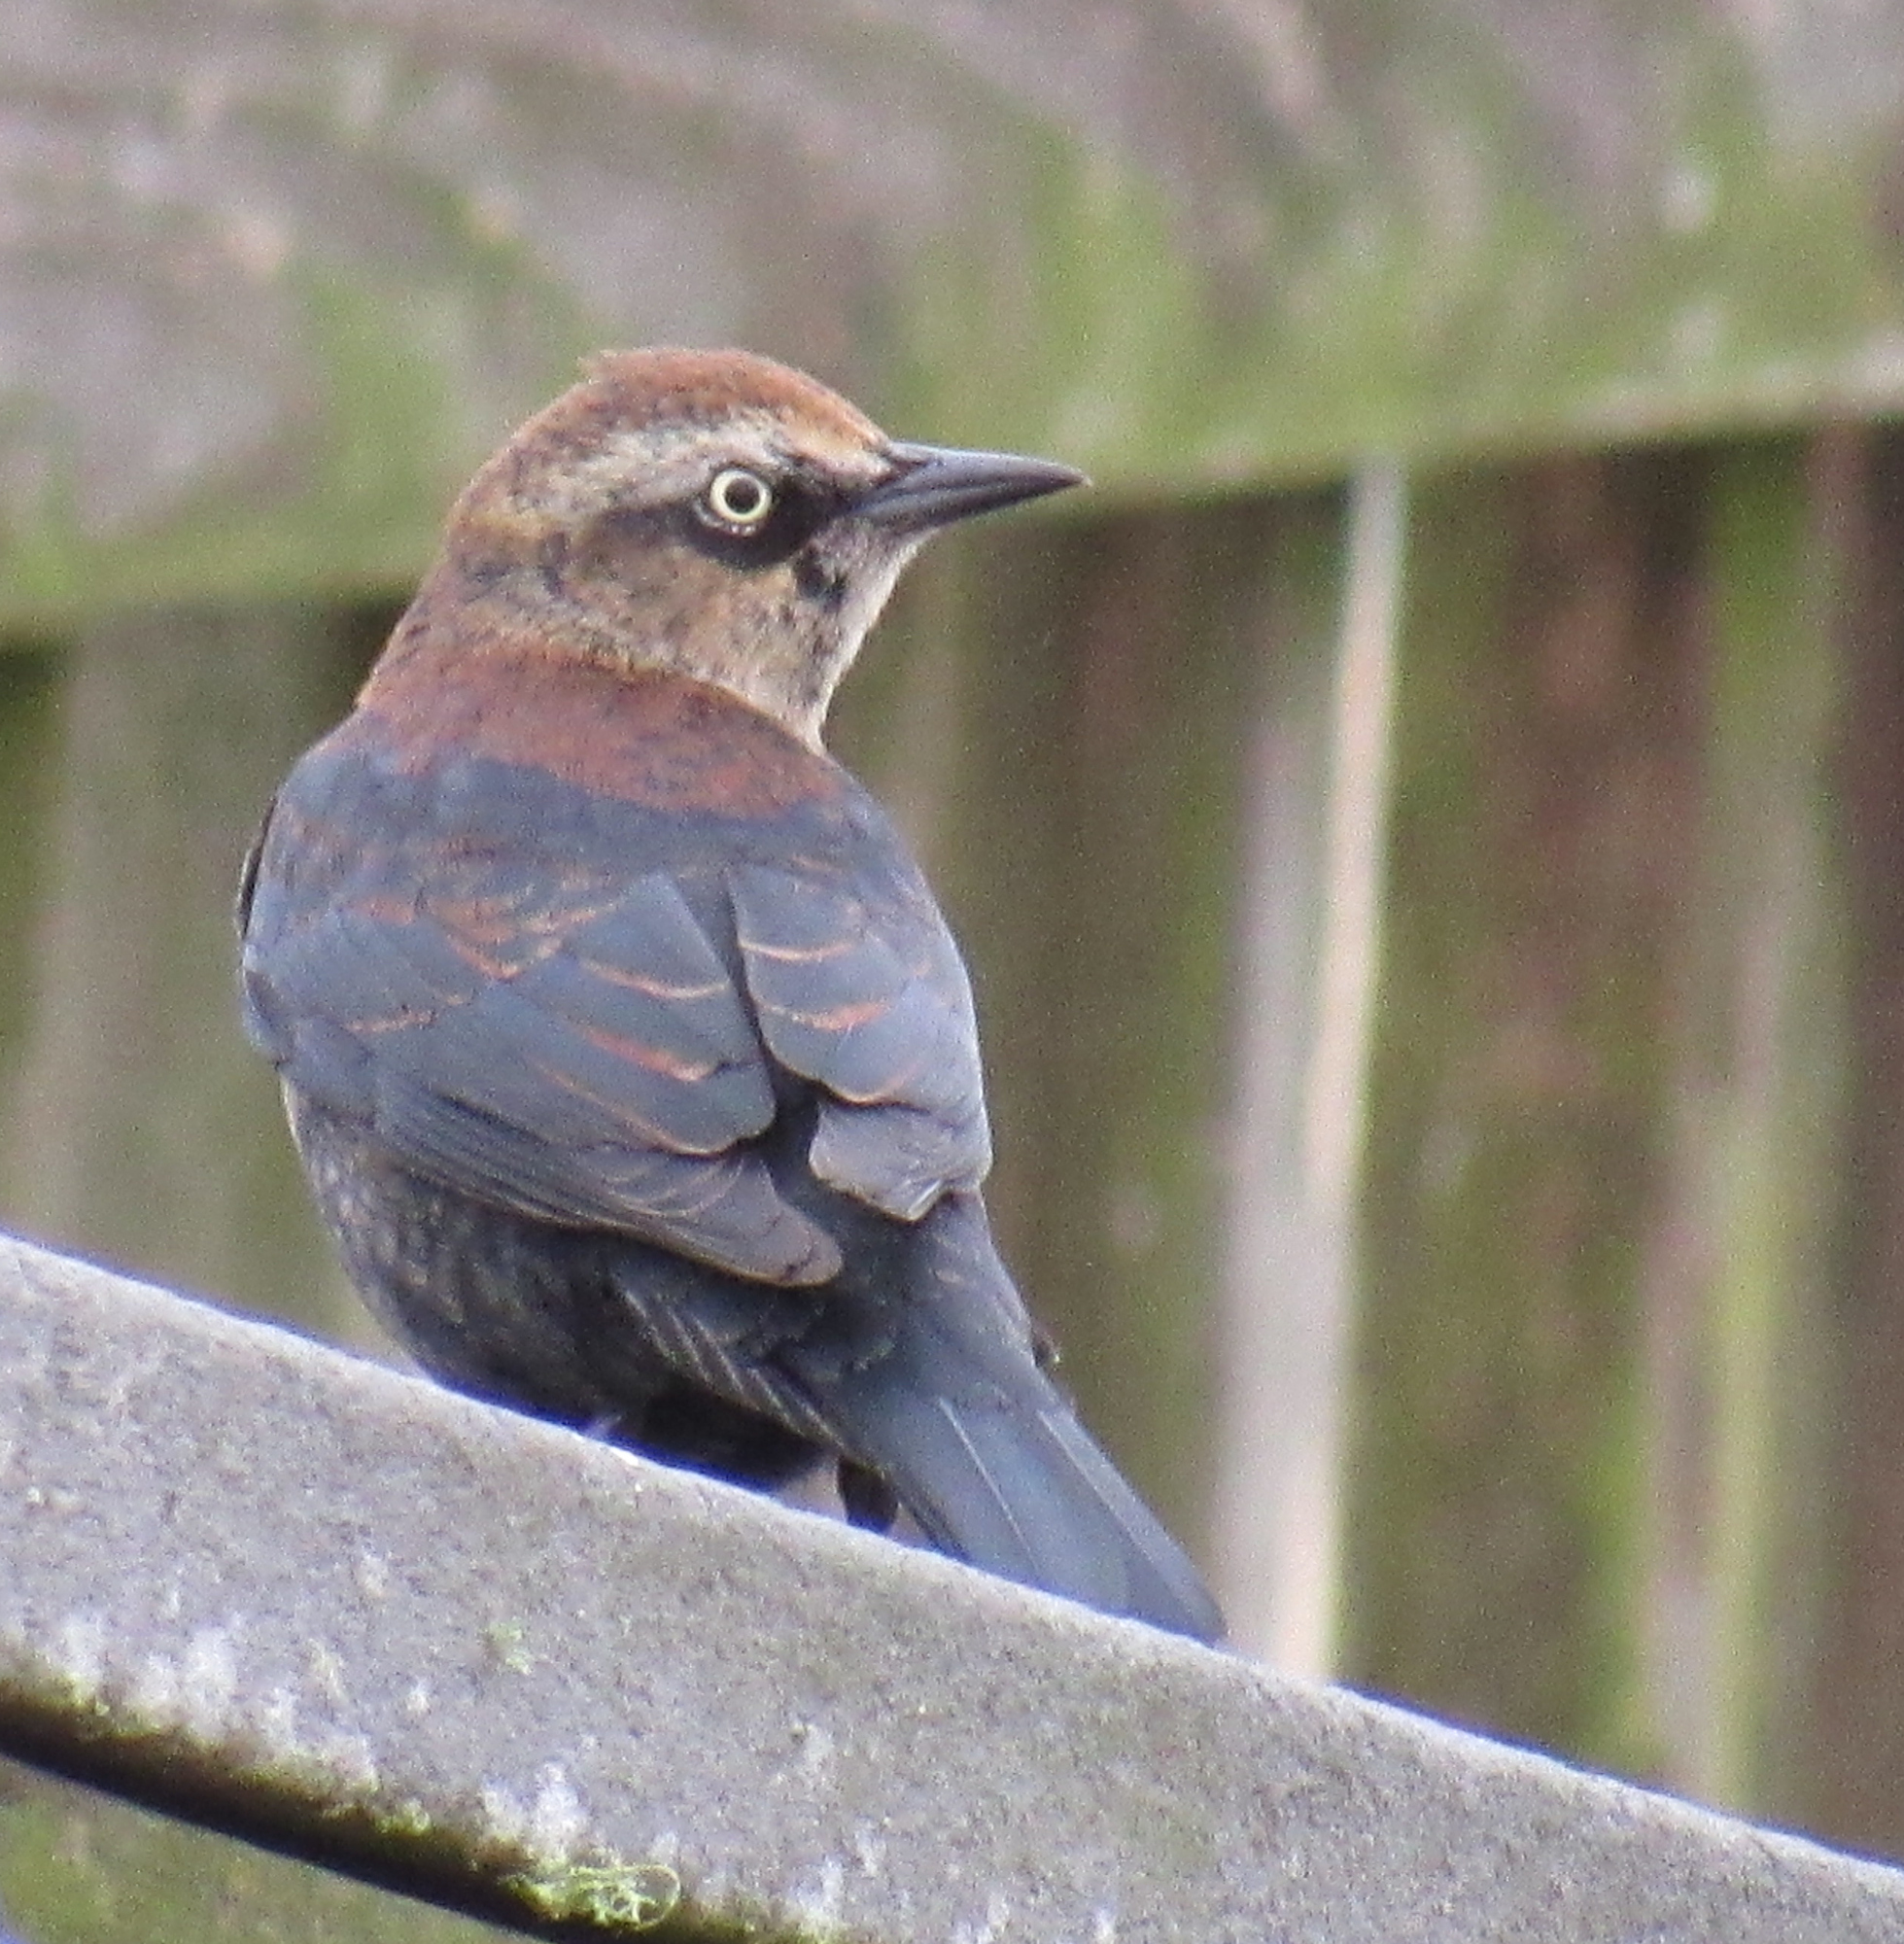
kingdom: Animalia
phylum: Chordata
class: Aves
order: Passeriformes
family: Icteridae
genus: Euphagus
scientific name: Euphagus carolinus
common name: Rusty blackbird
